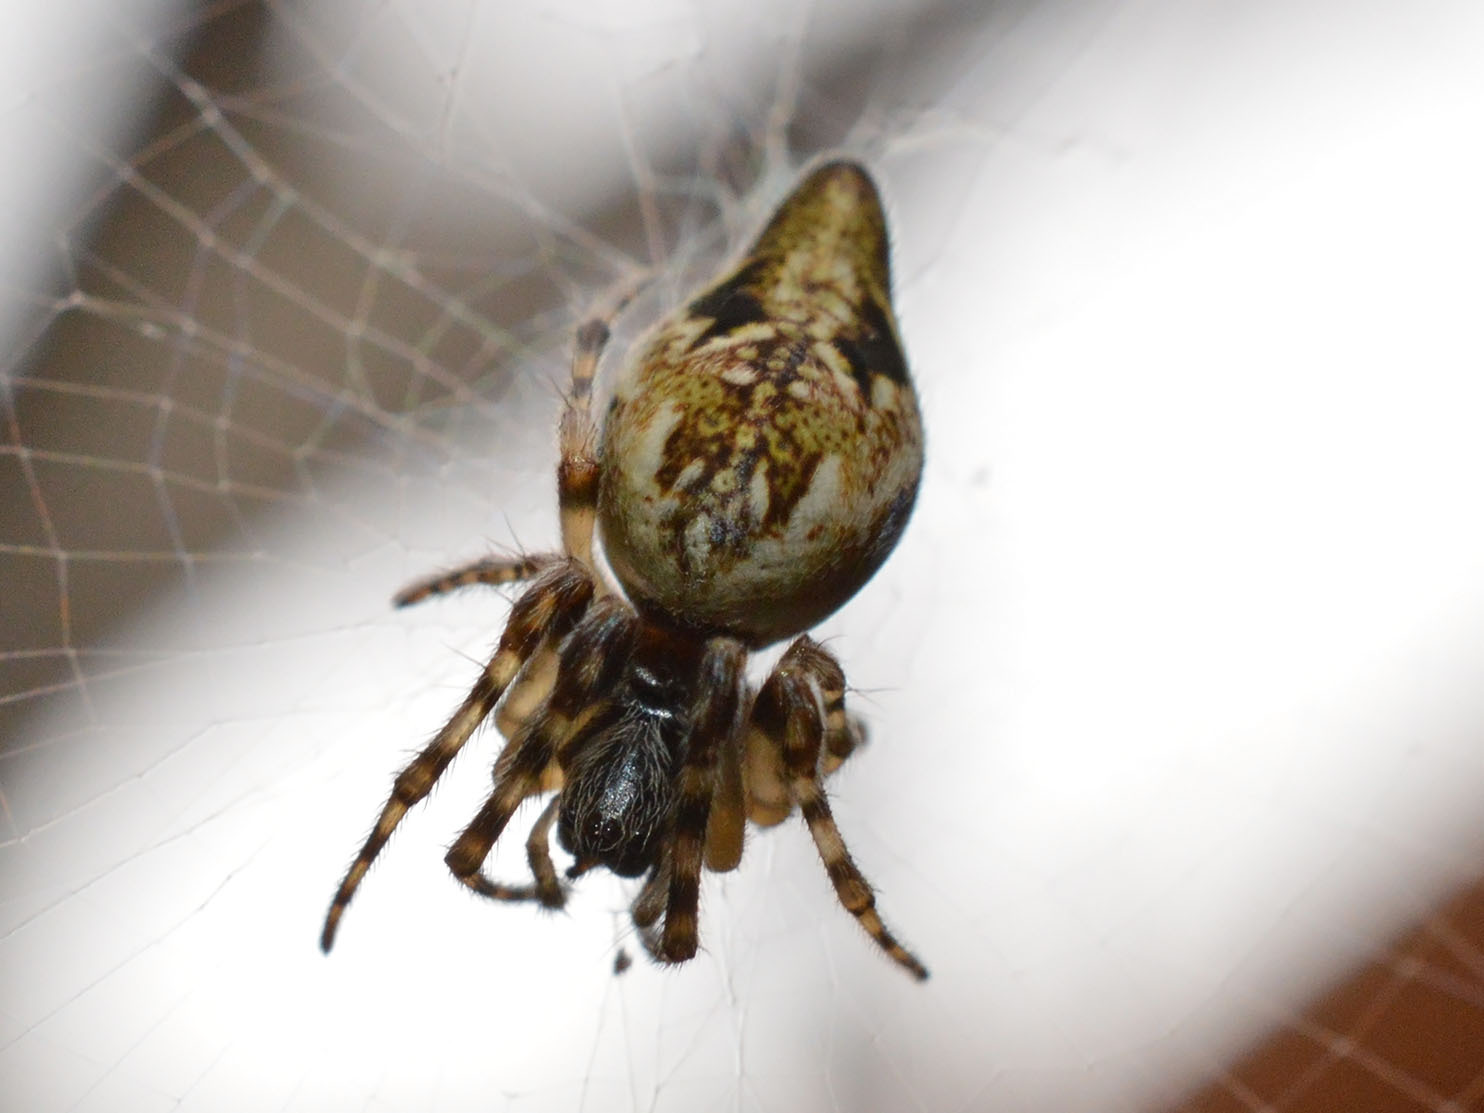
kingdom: Animalia
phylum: Arthropoda
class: Arachnida
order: Araneae
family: Araneidae
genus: Cyclosa
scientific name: Cyclosa conica
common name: Conical trashline orbweaver
